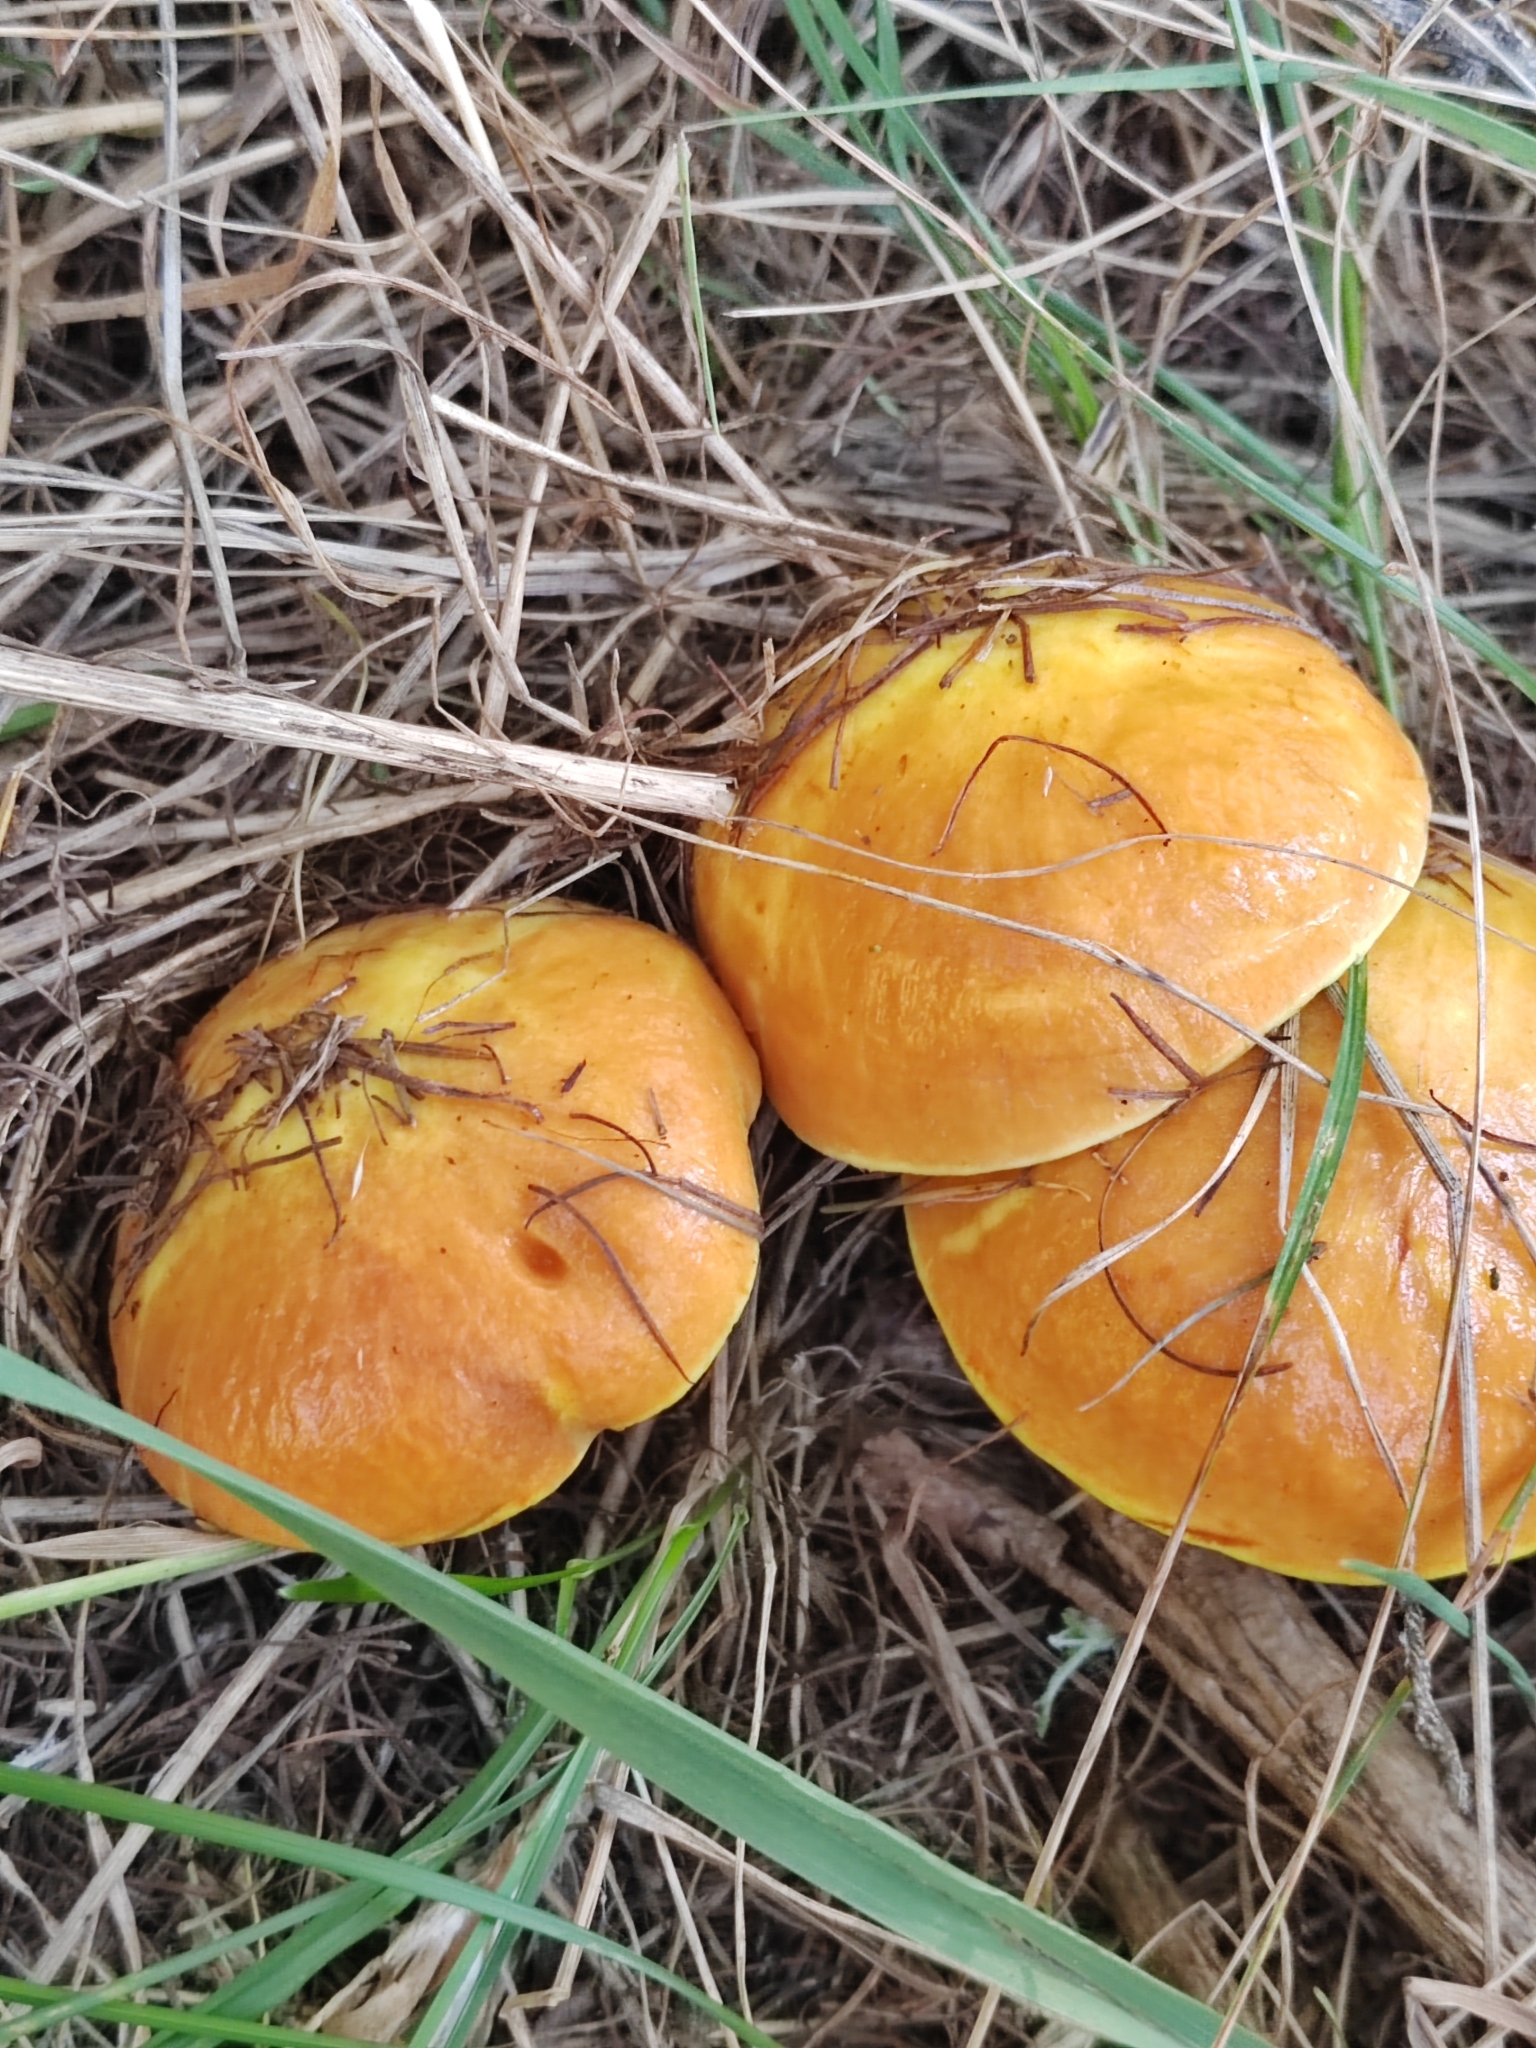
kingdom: Fungi
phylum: Basidiomycota
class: Agaricomycetes
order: Boletales
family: Suillaceae
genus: Suillus
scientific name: Suillus grevillei
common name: Larch bolete
